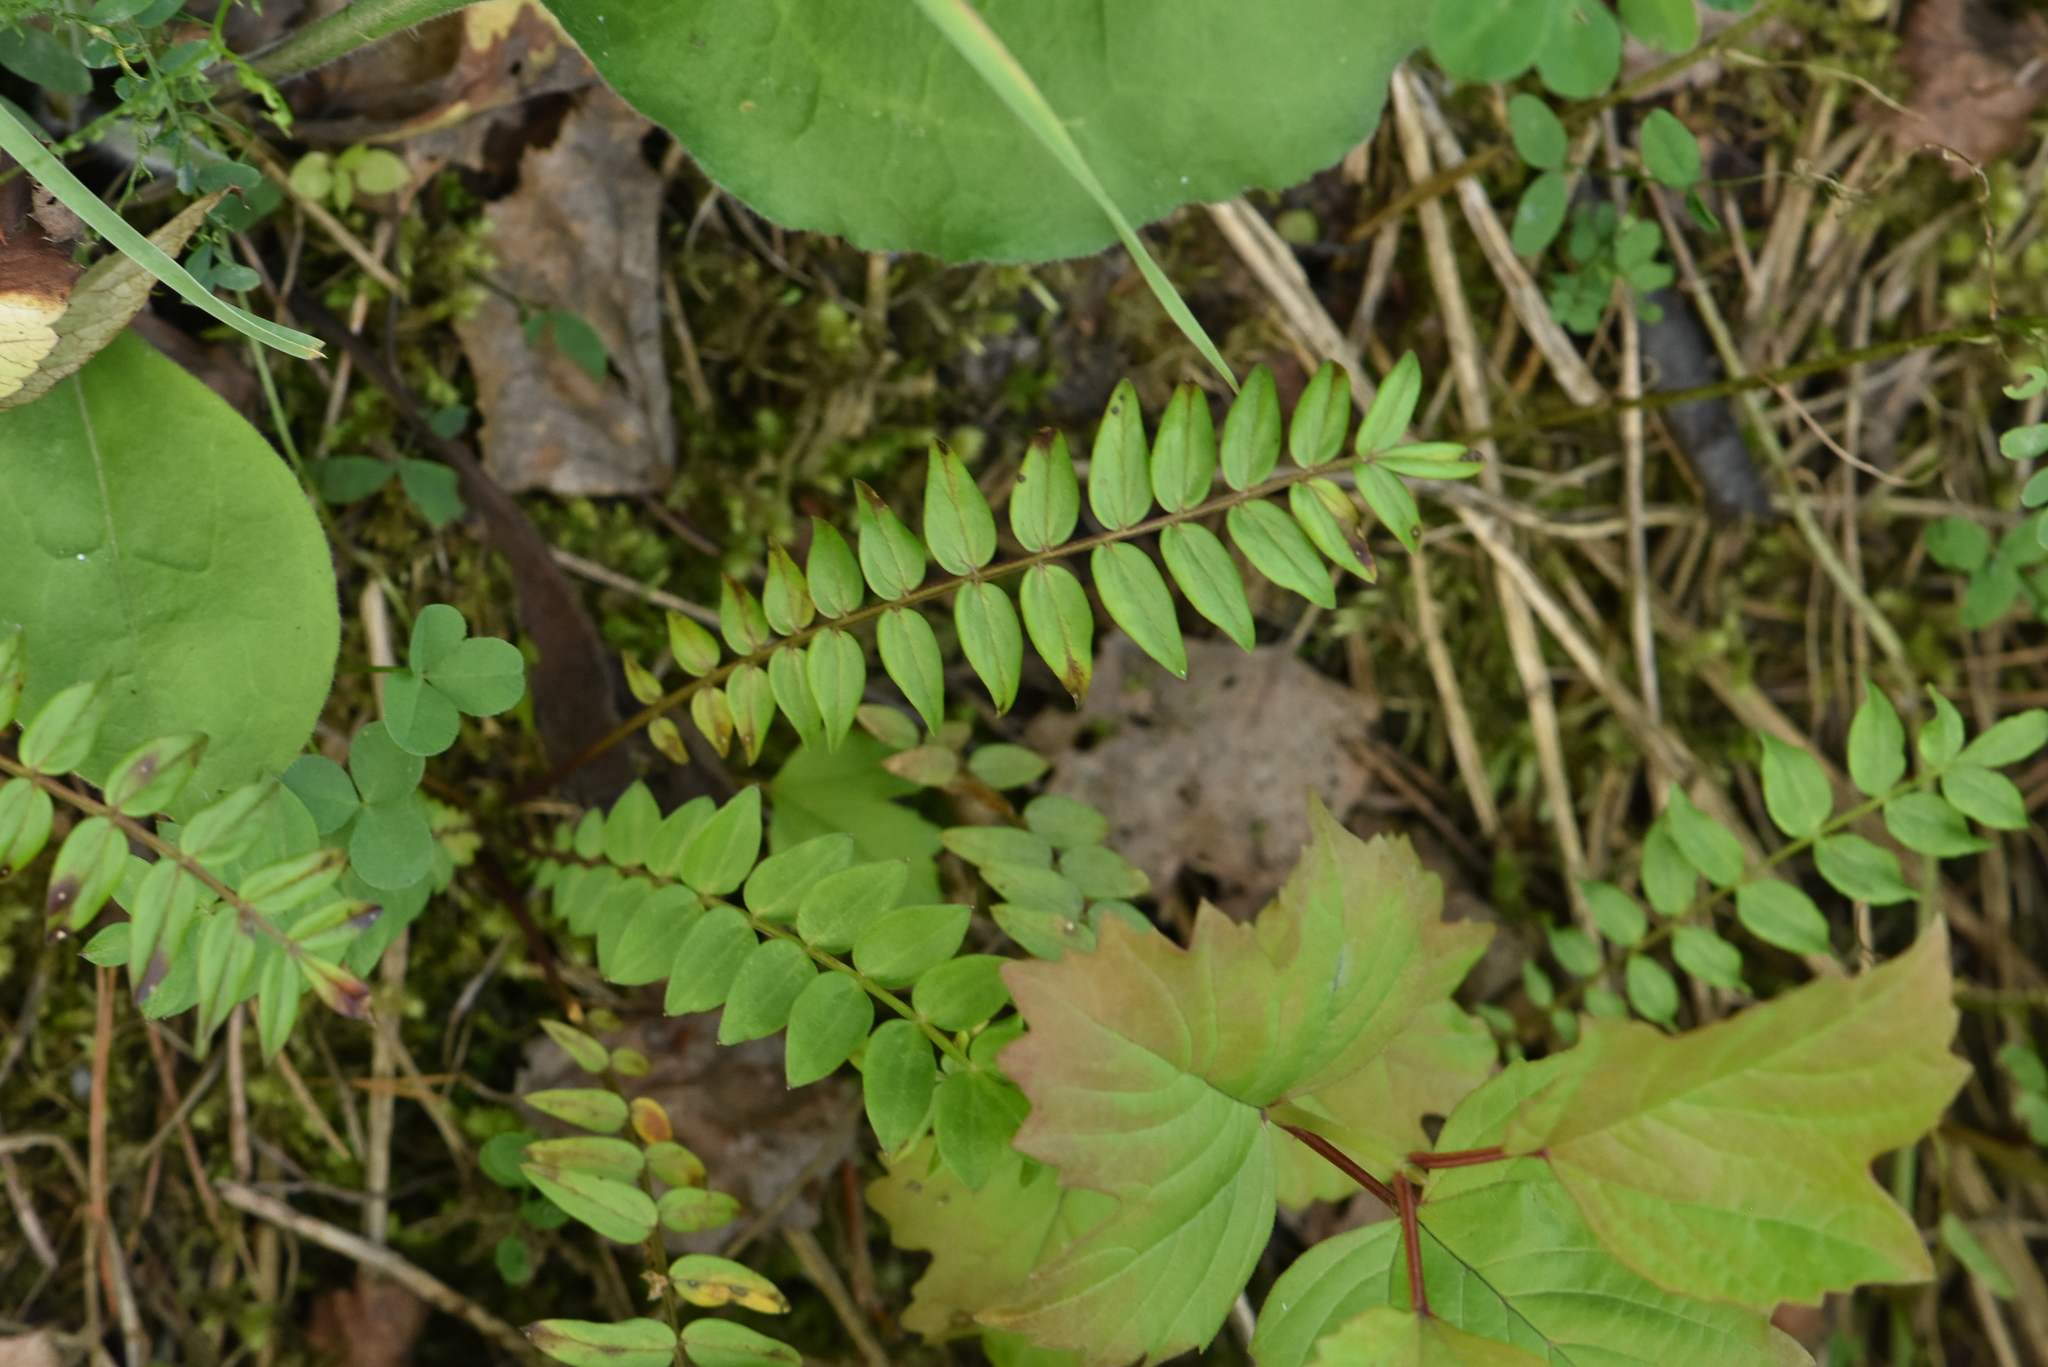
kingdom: Plantae
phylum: Tracheophyta
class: Magnoliopsida
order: Ericales
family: Polemoniaceae
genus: Polemonium
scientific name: Polemonium caeruleum
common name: Jacob's-ladder
